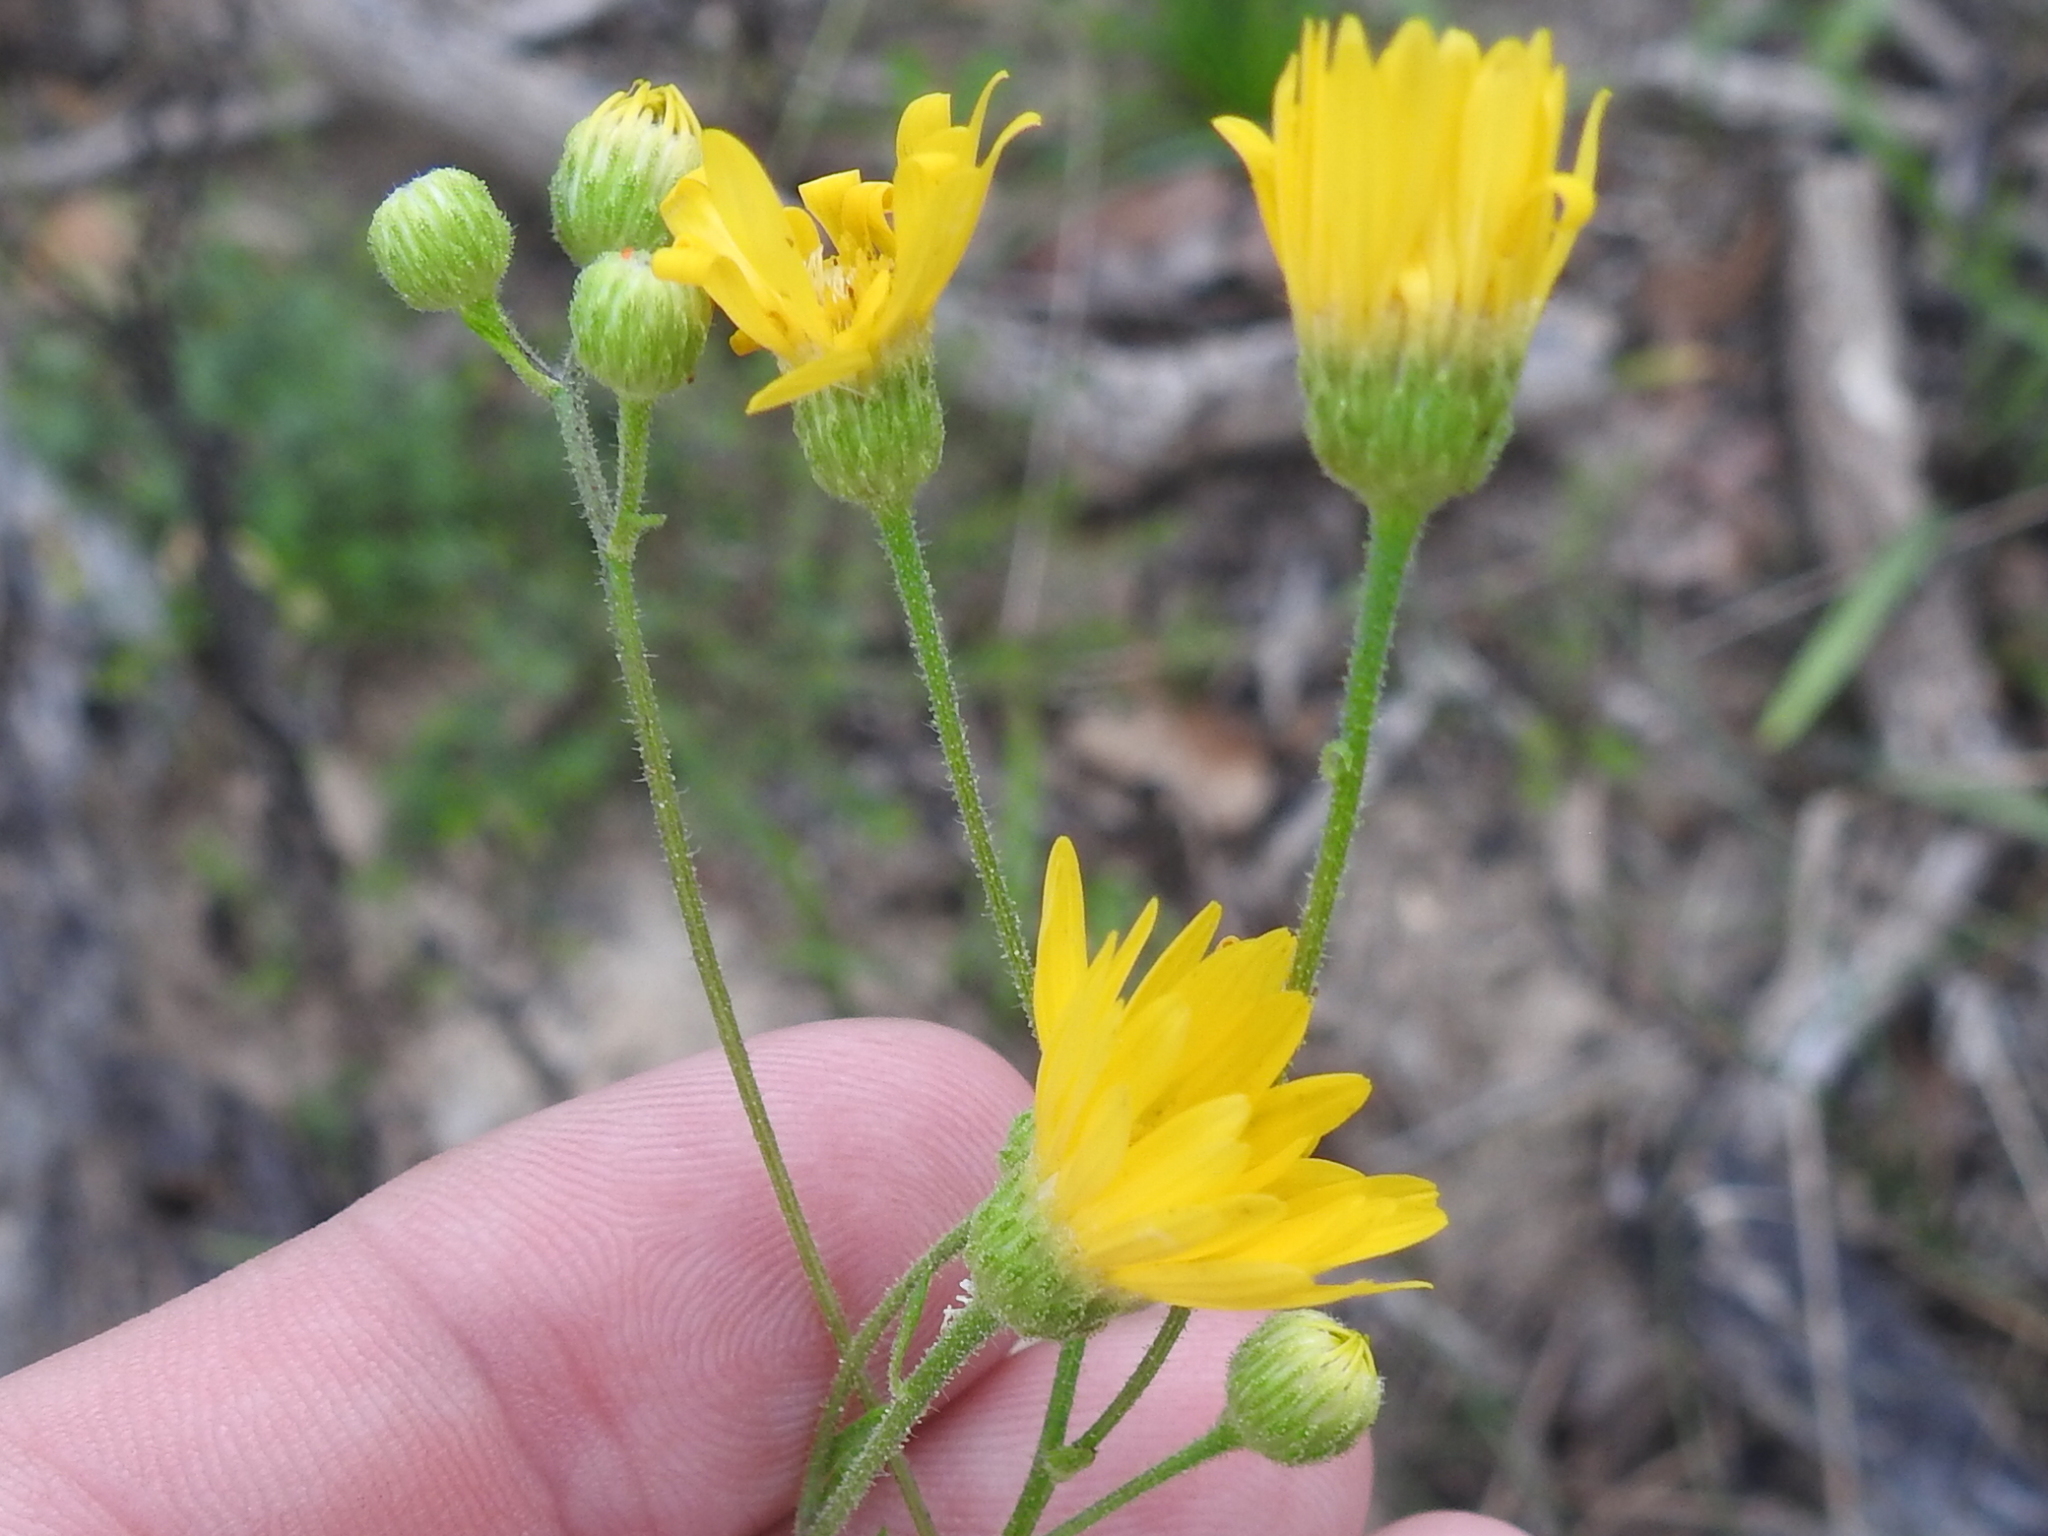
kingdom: Plantae
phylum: Tracheophyta
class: Magnoliopsida
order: Asterales
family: Asteraceae
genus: Heterotheca
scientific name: Heterotheca subaxillaris
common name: Camphorweed
